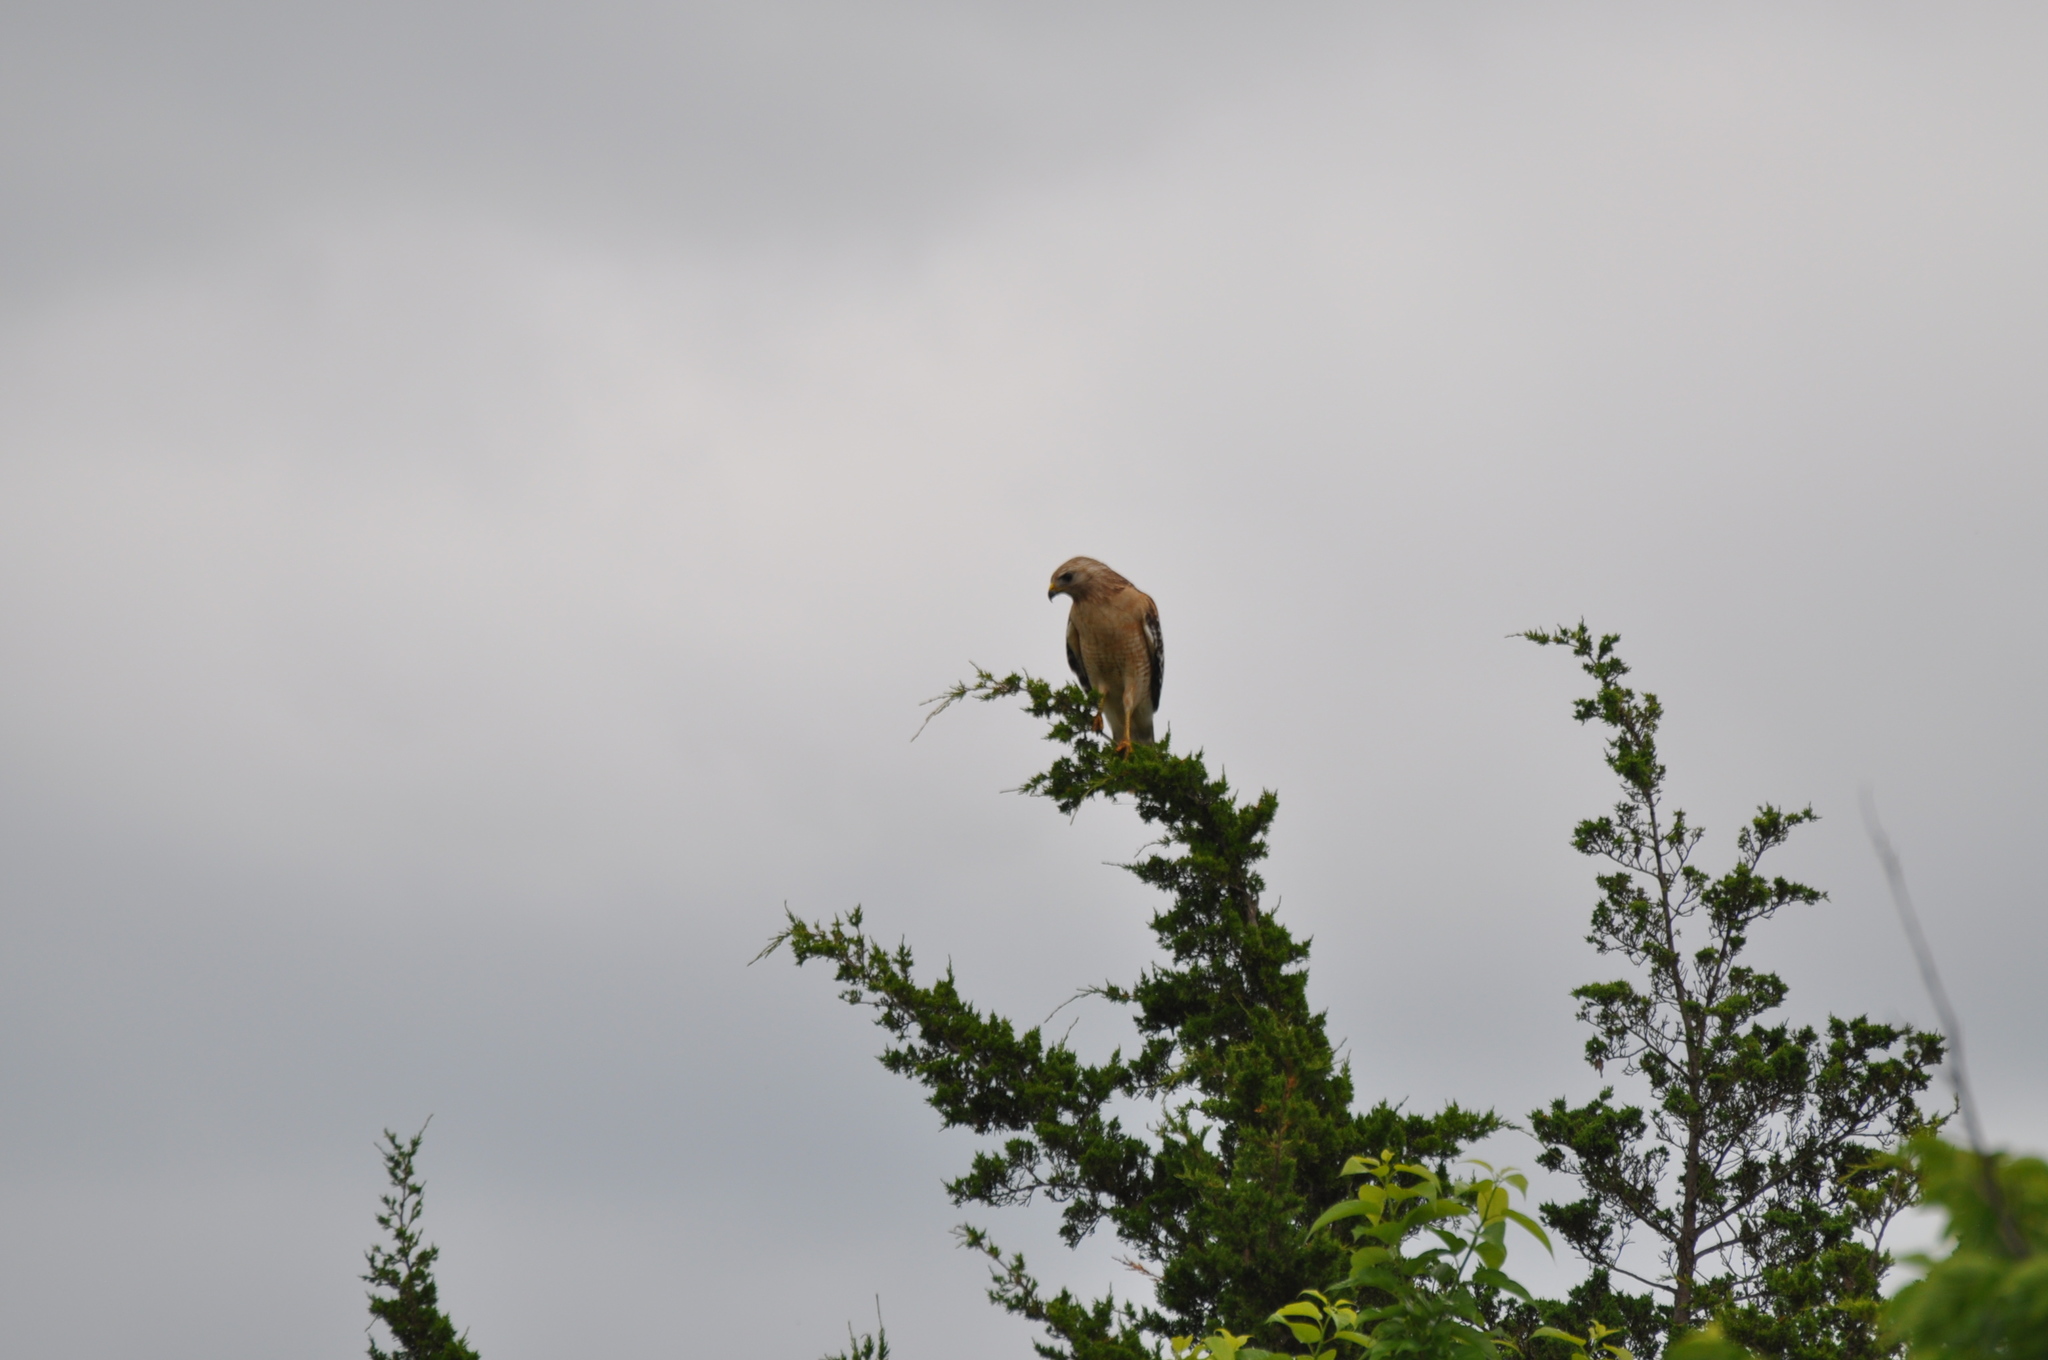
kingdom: Animalia
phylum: Chordata
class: Aves
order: Accipitriformes
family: Accipitridae
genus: Buteo
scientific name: Buteo lineatus
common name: Red-shouldered hawk
